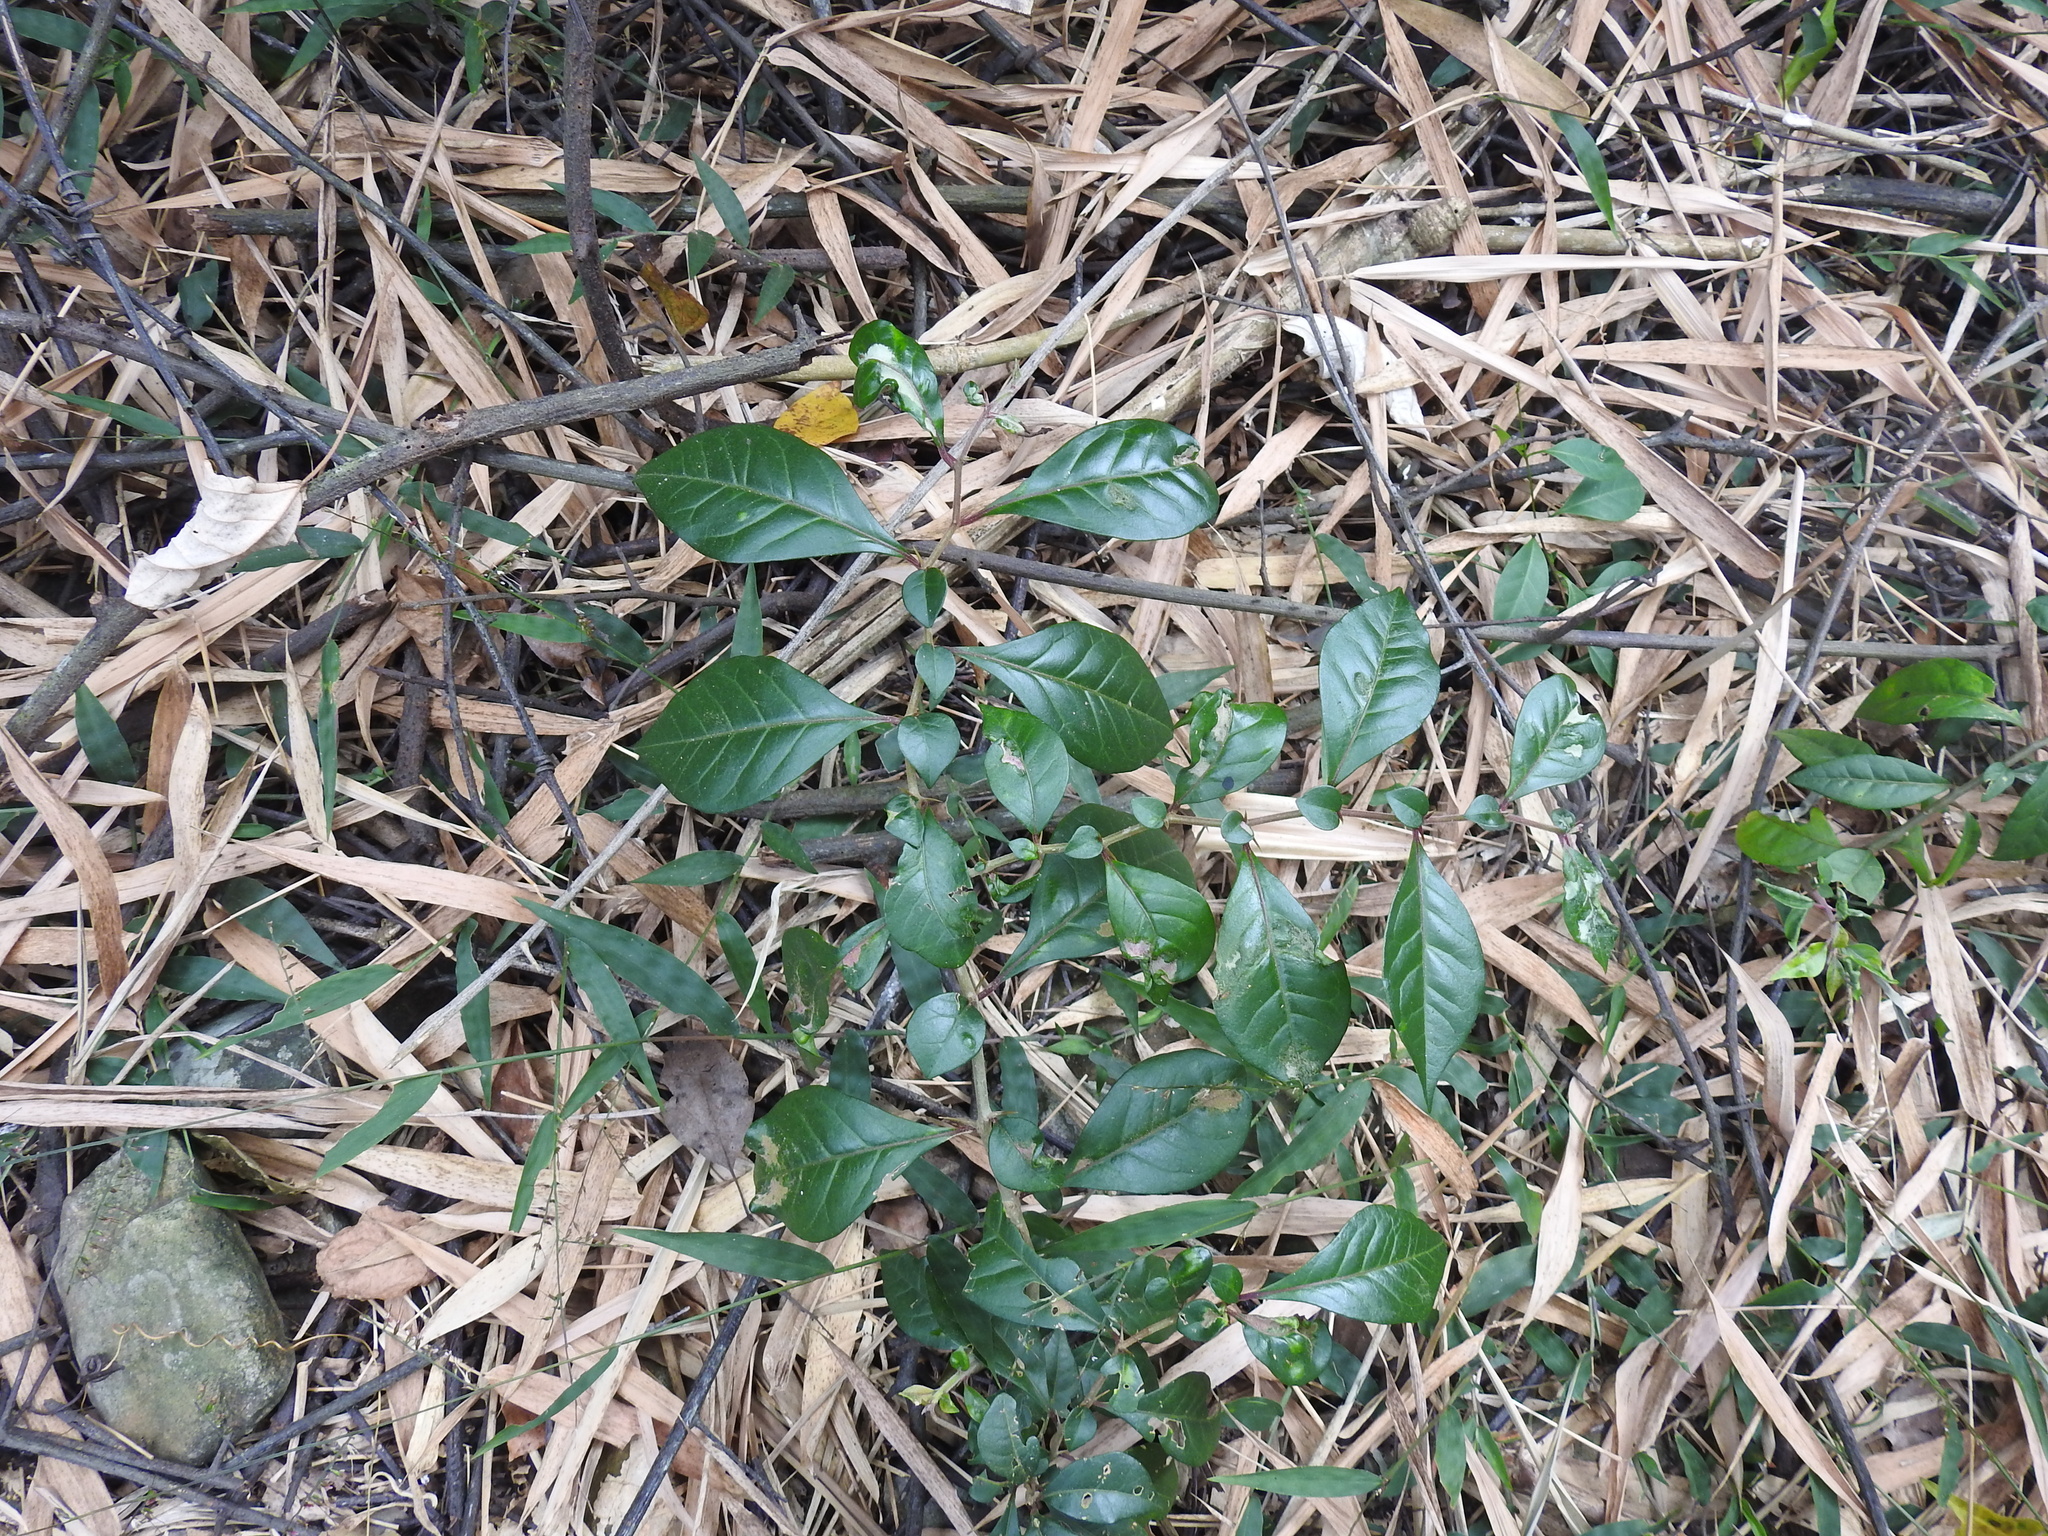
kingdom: Plantae
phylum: Tracheophyta
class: Magnoliopsida
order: Caryophyllales
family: Nyctaginaceae
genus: Pisonia
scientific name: Pisonia aculeata
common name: Cockspur vine
